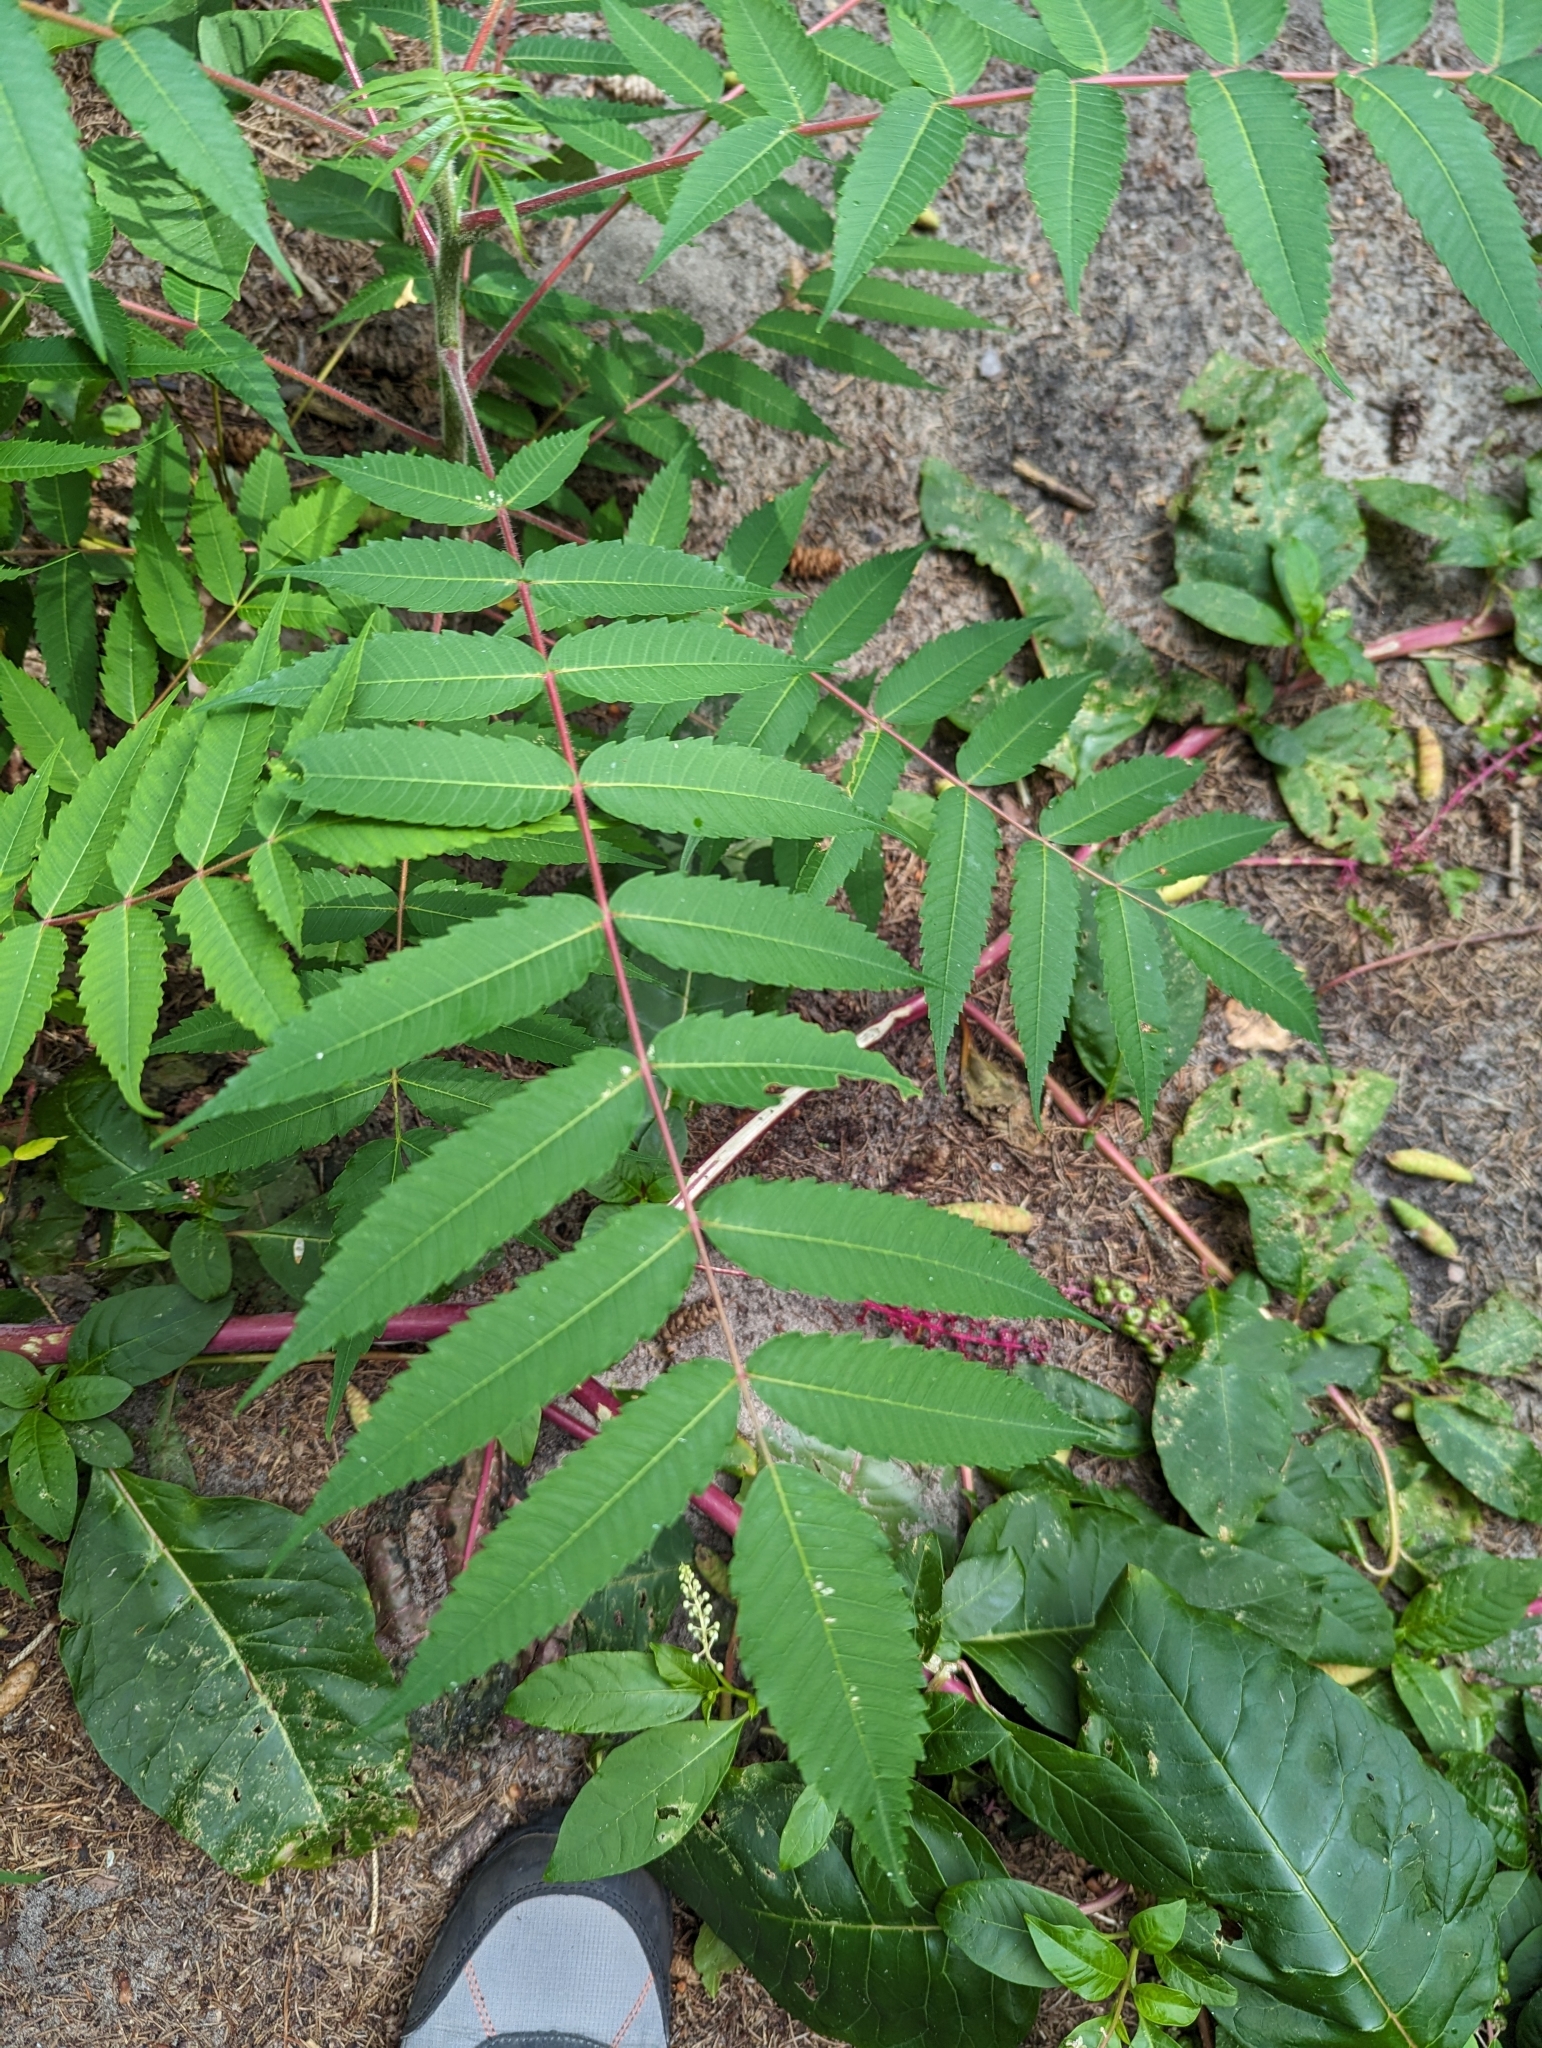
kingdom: Plantae
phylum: Tracheophyta
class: Magnoliopsida
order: Sapindales
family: Anacardiaceae
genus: Rhus
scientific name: Rhus typhina
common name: Staghorn sumac
